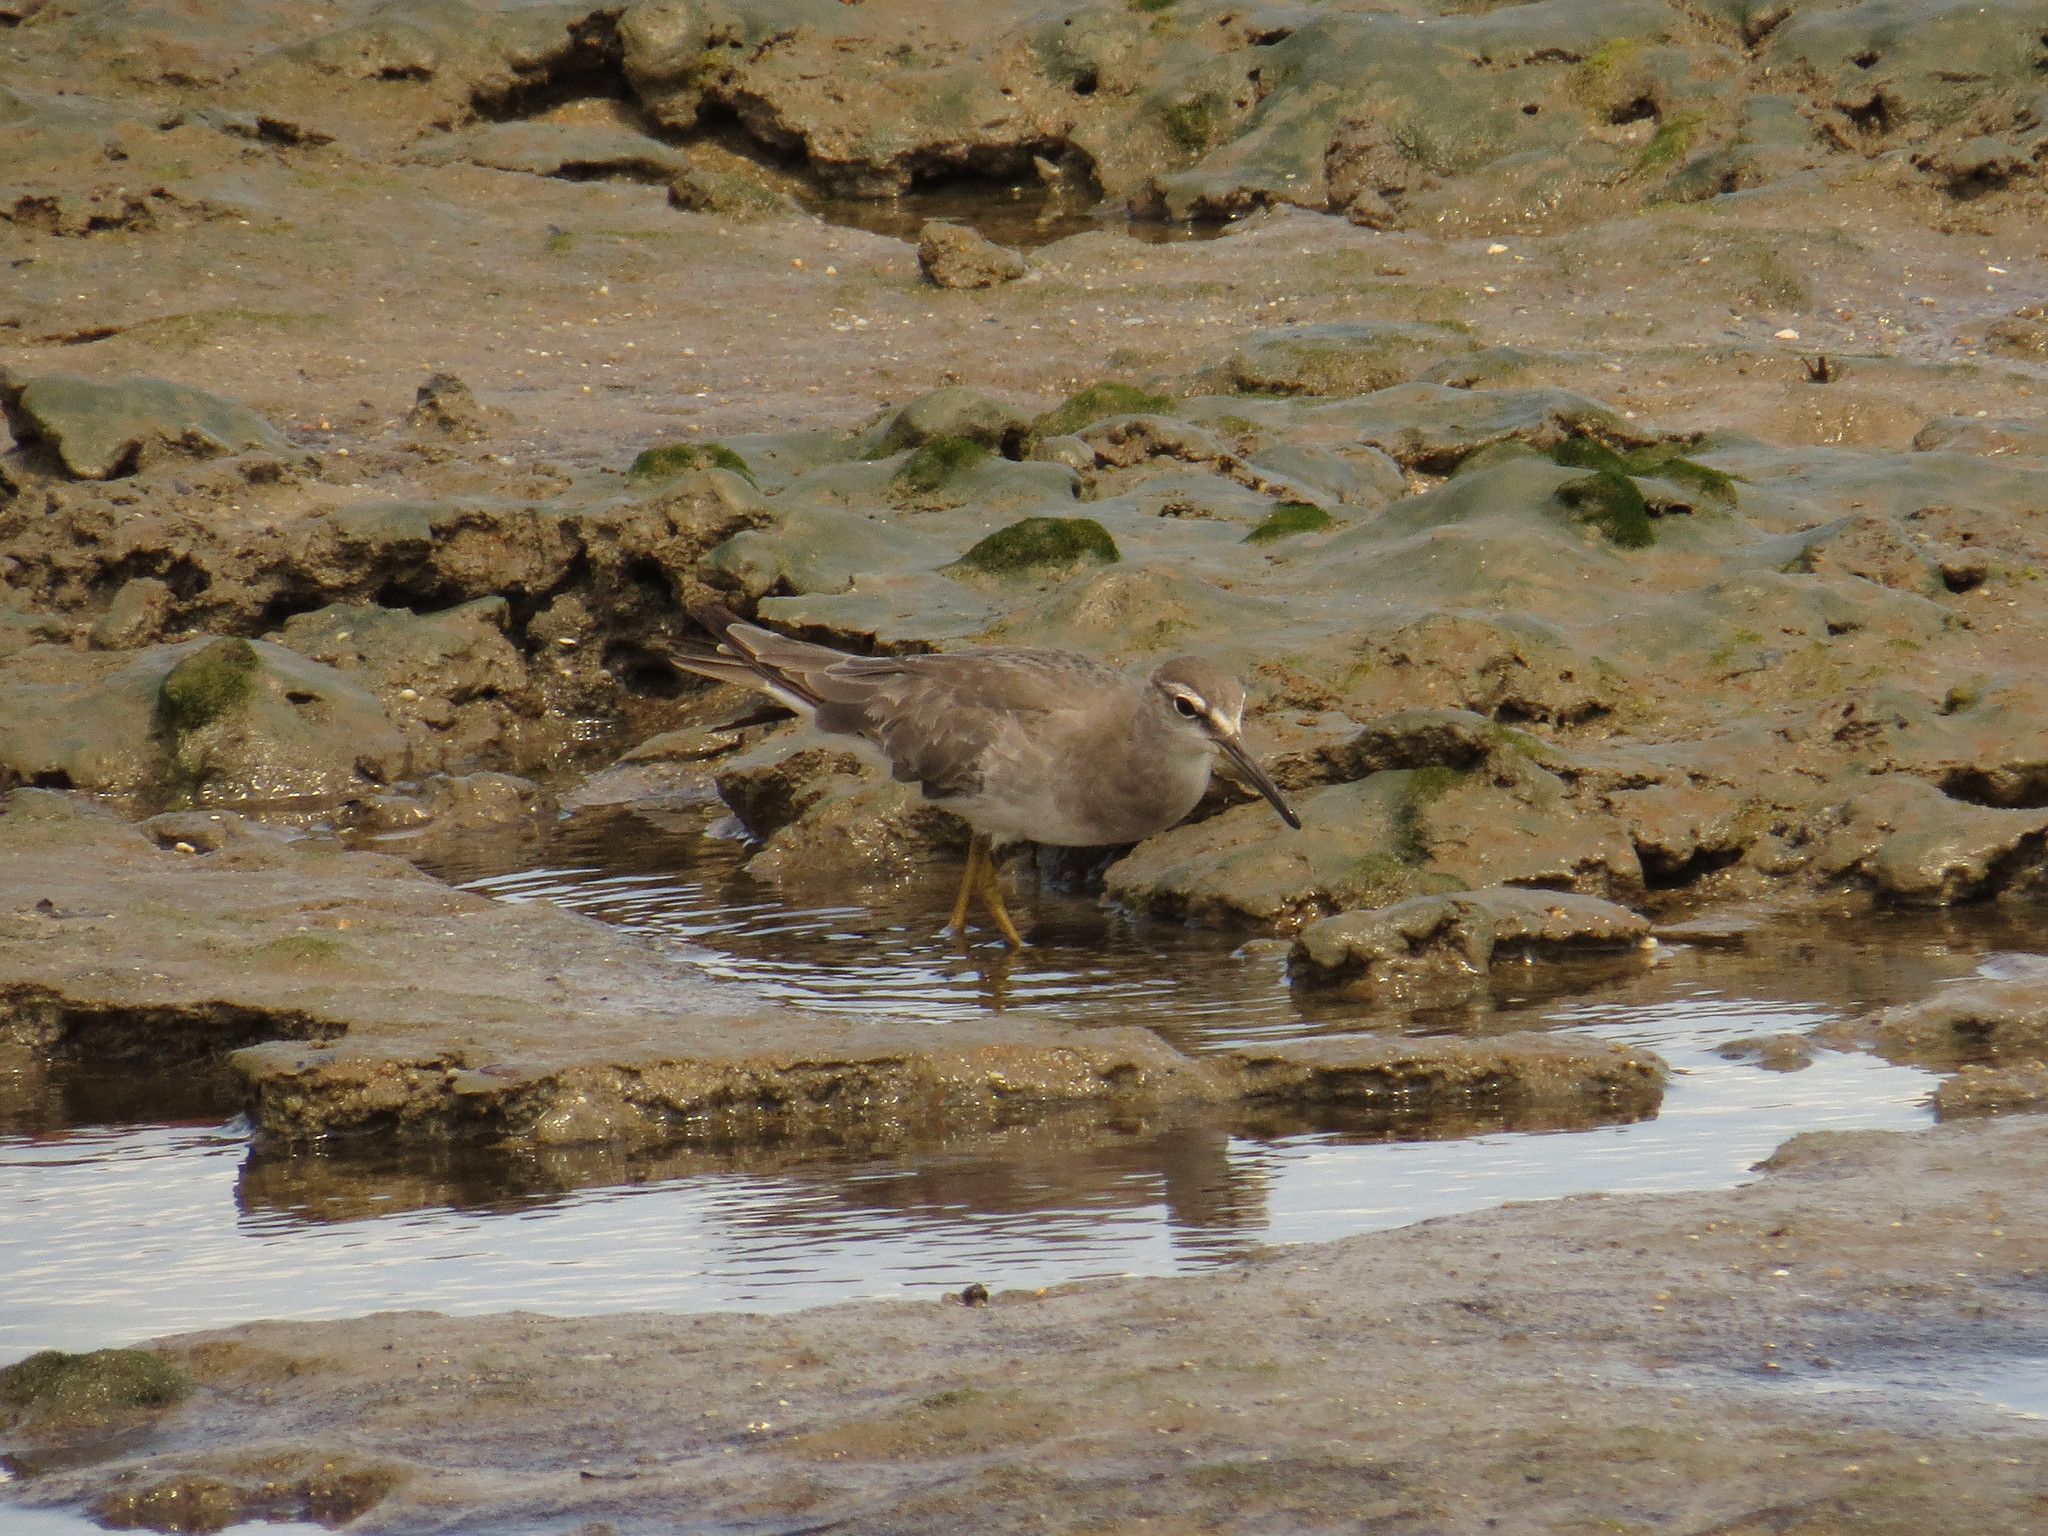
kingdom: Animalia
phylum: Chordata
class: Aves
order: Charadriiformes
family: Scolopacidae
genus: Tringa
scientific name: Tringa brevipes
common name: Grey-tailed tattler
